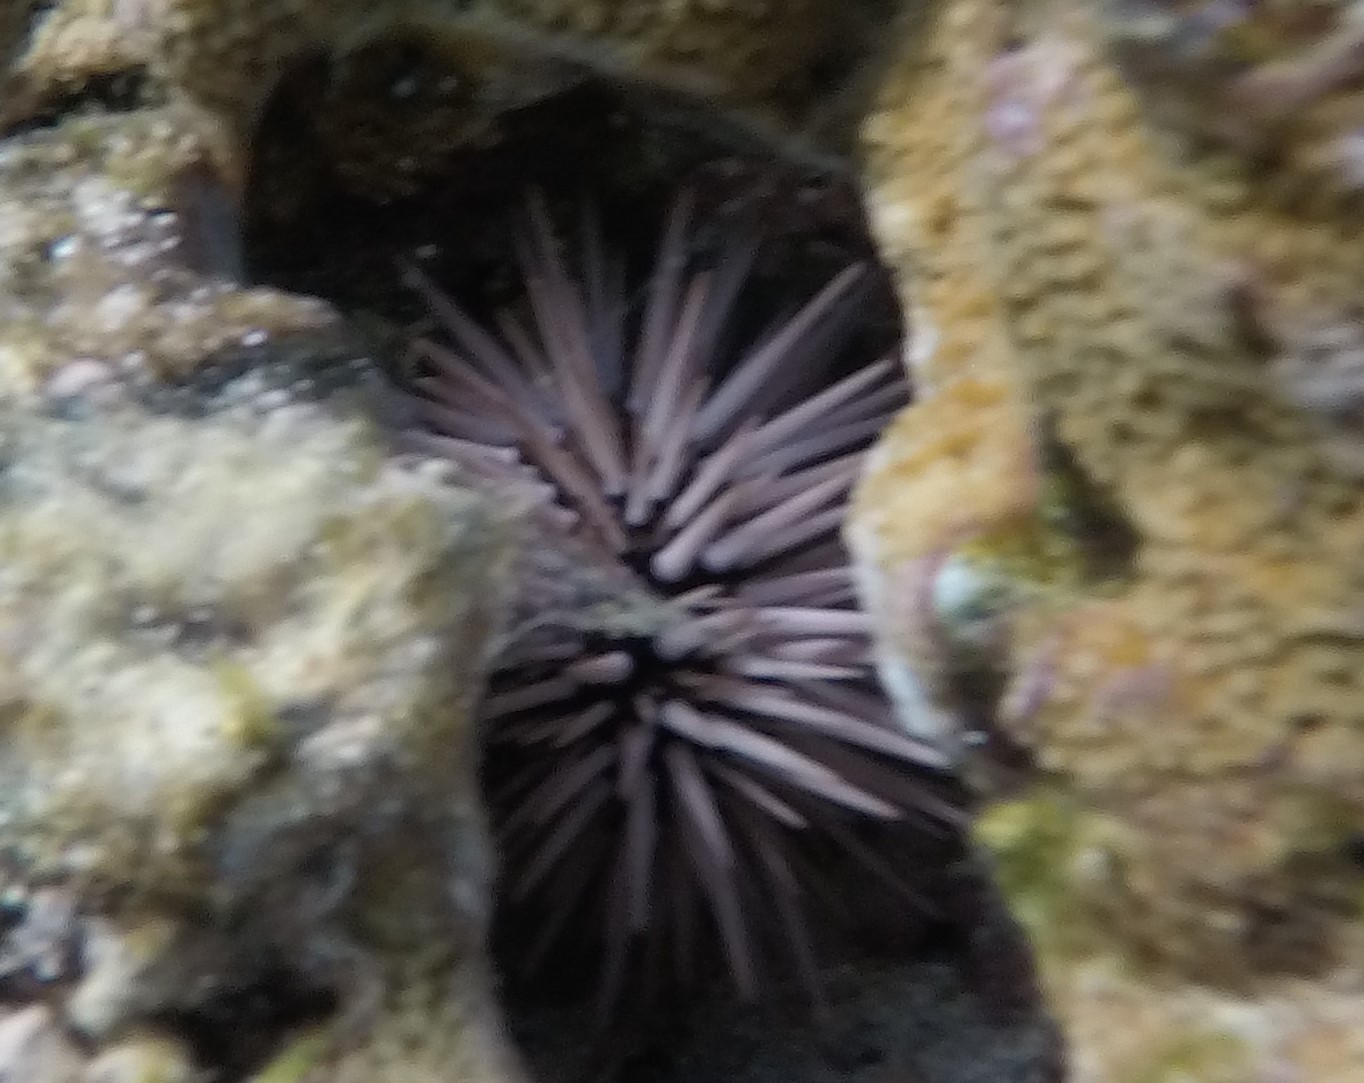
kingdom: Animalia
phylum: Echinodermata
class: Echinoidea
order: Camarodonta
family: Echinometridae
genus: Echinometra
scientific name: Echinometra mathaei
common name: Rock-boring urchin
